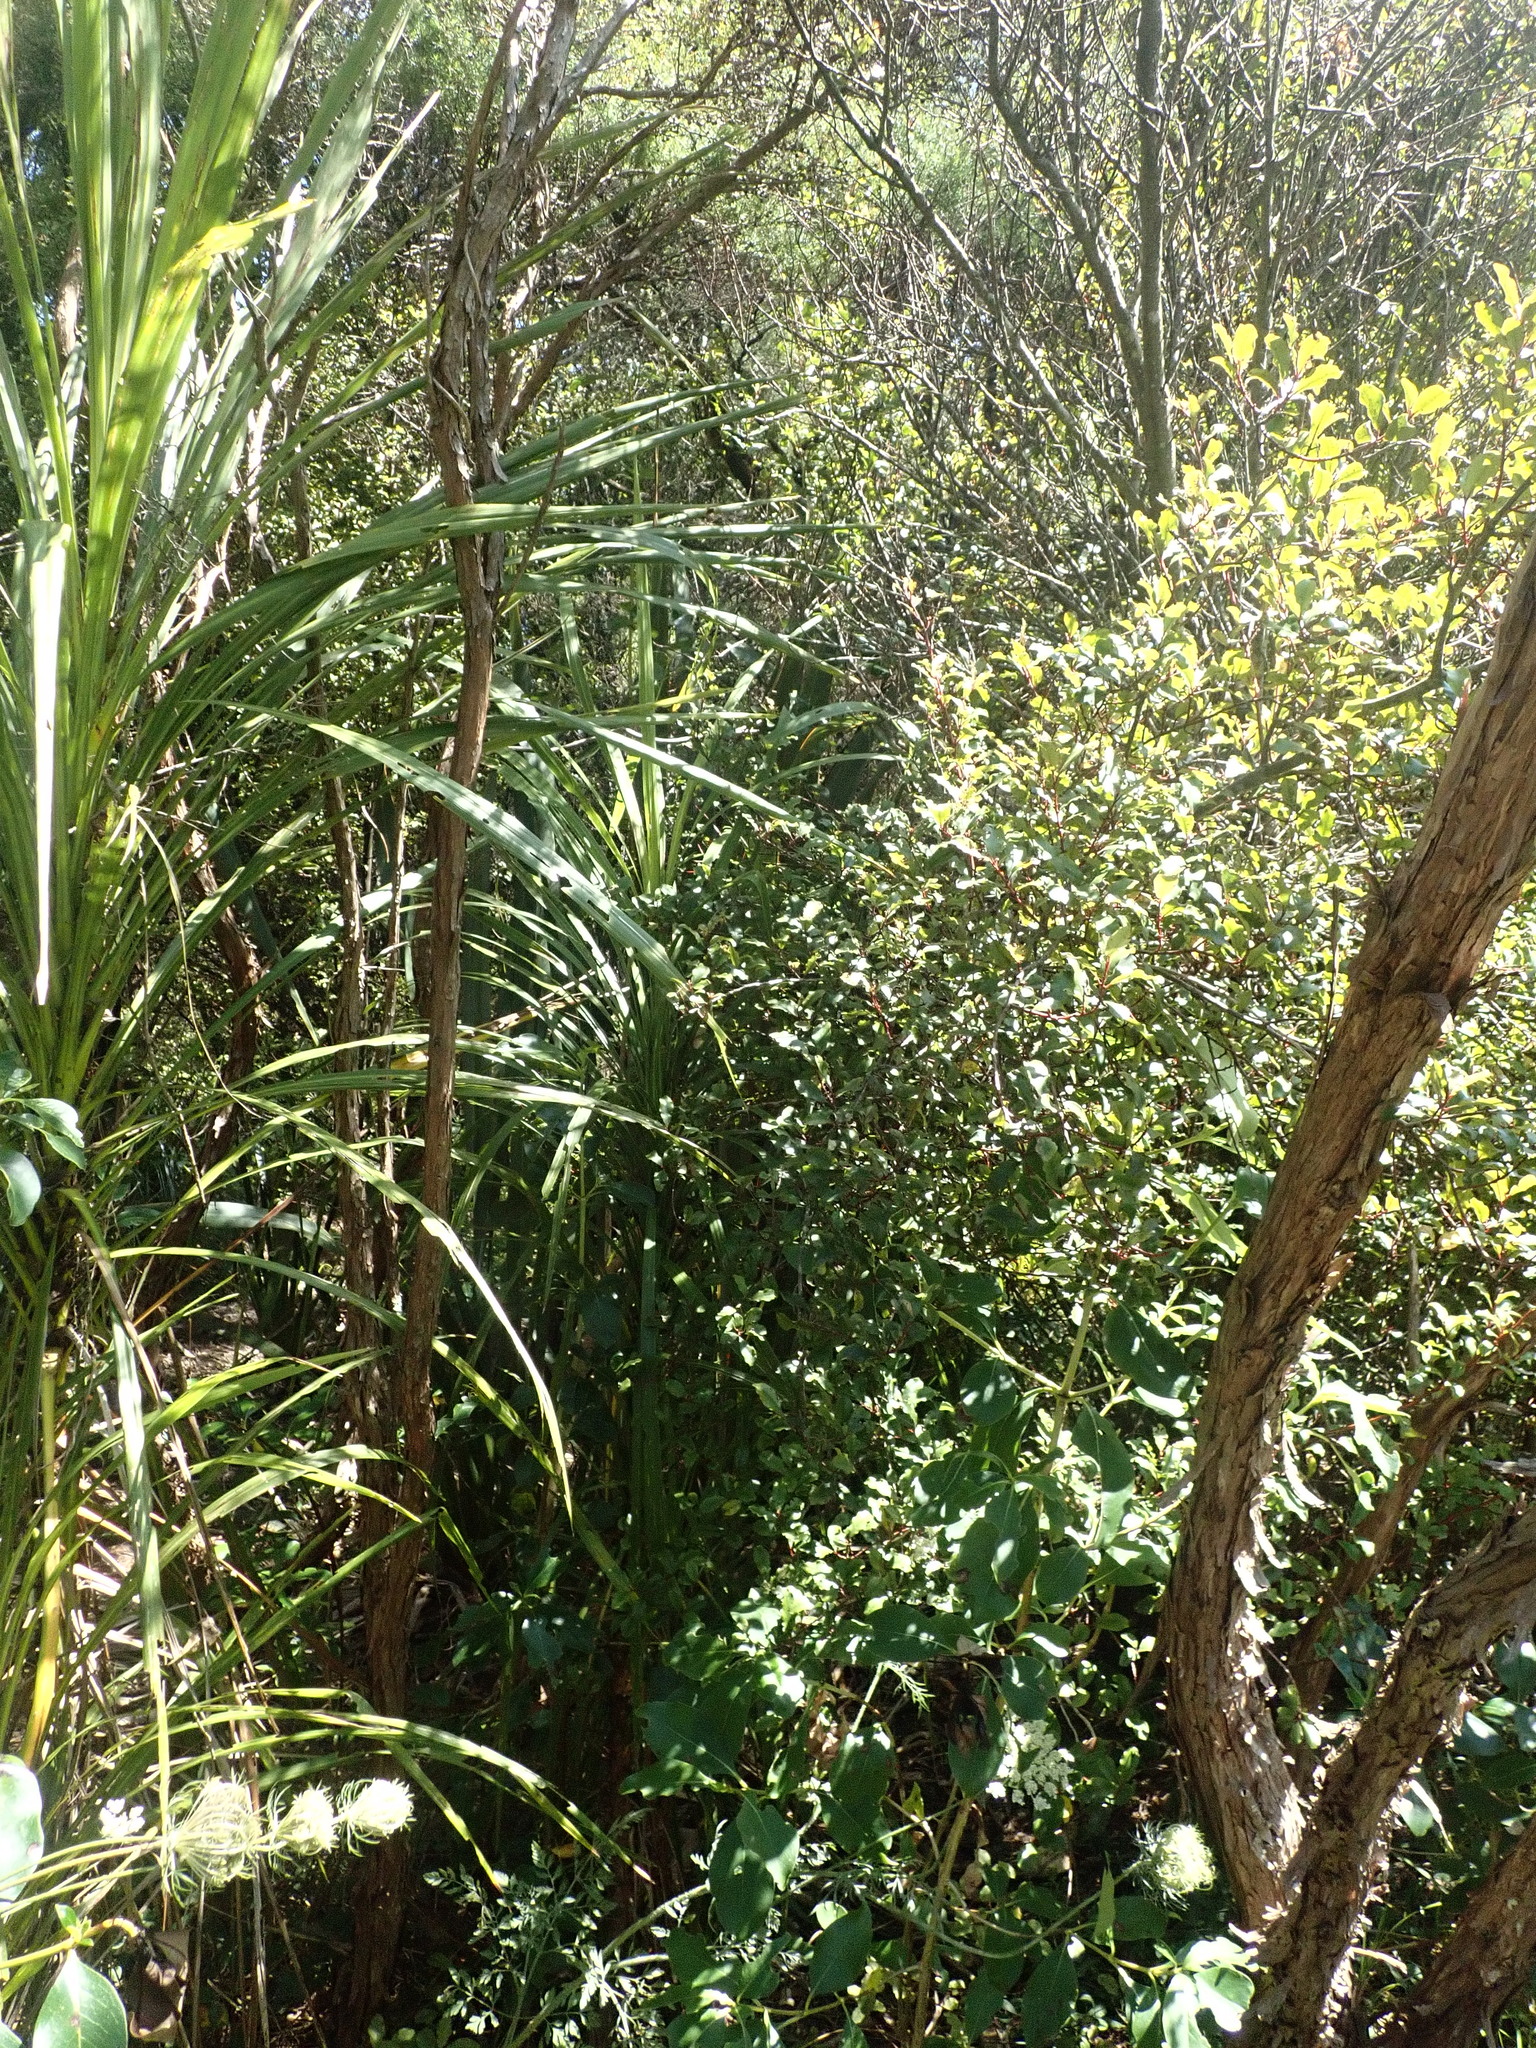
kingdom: Plantae
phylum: Tracheophyta
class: Liliopsida
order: Asparagales
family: Asparagaceae
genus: Cordyline
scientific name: Cordyline australis
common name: Cabbage-palm
